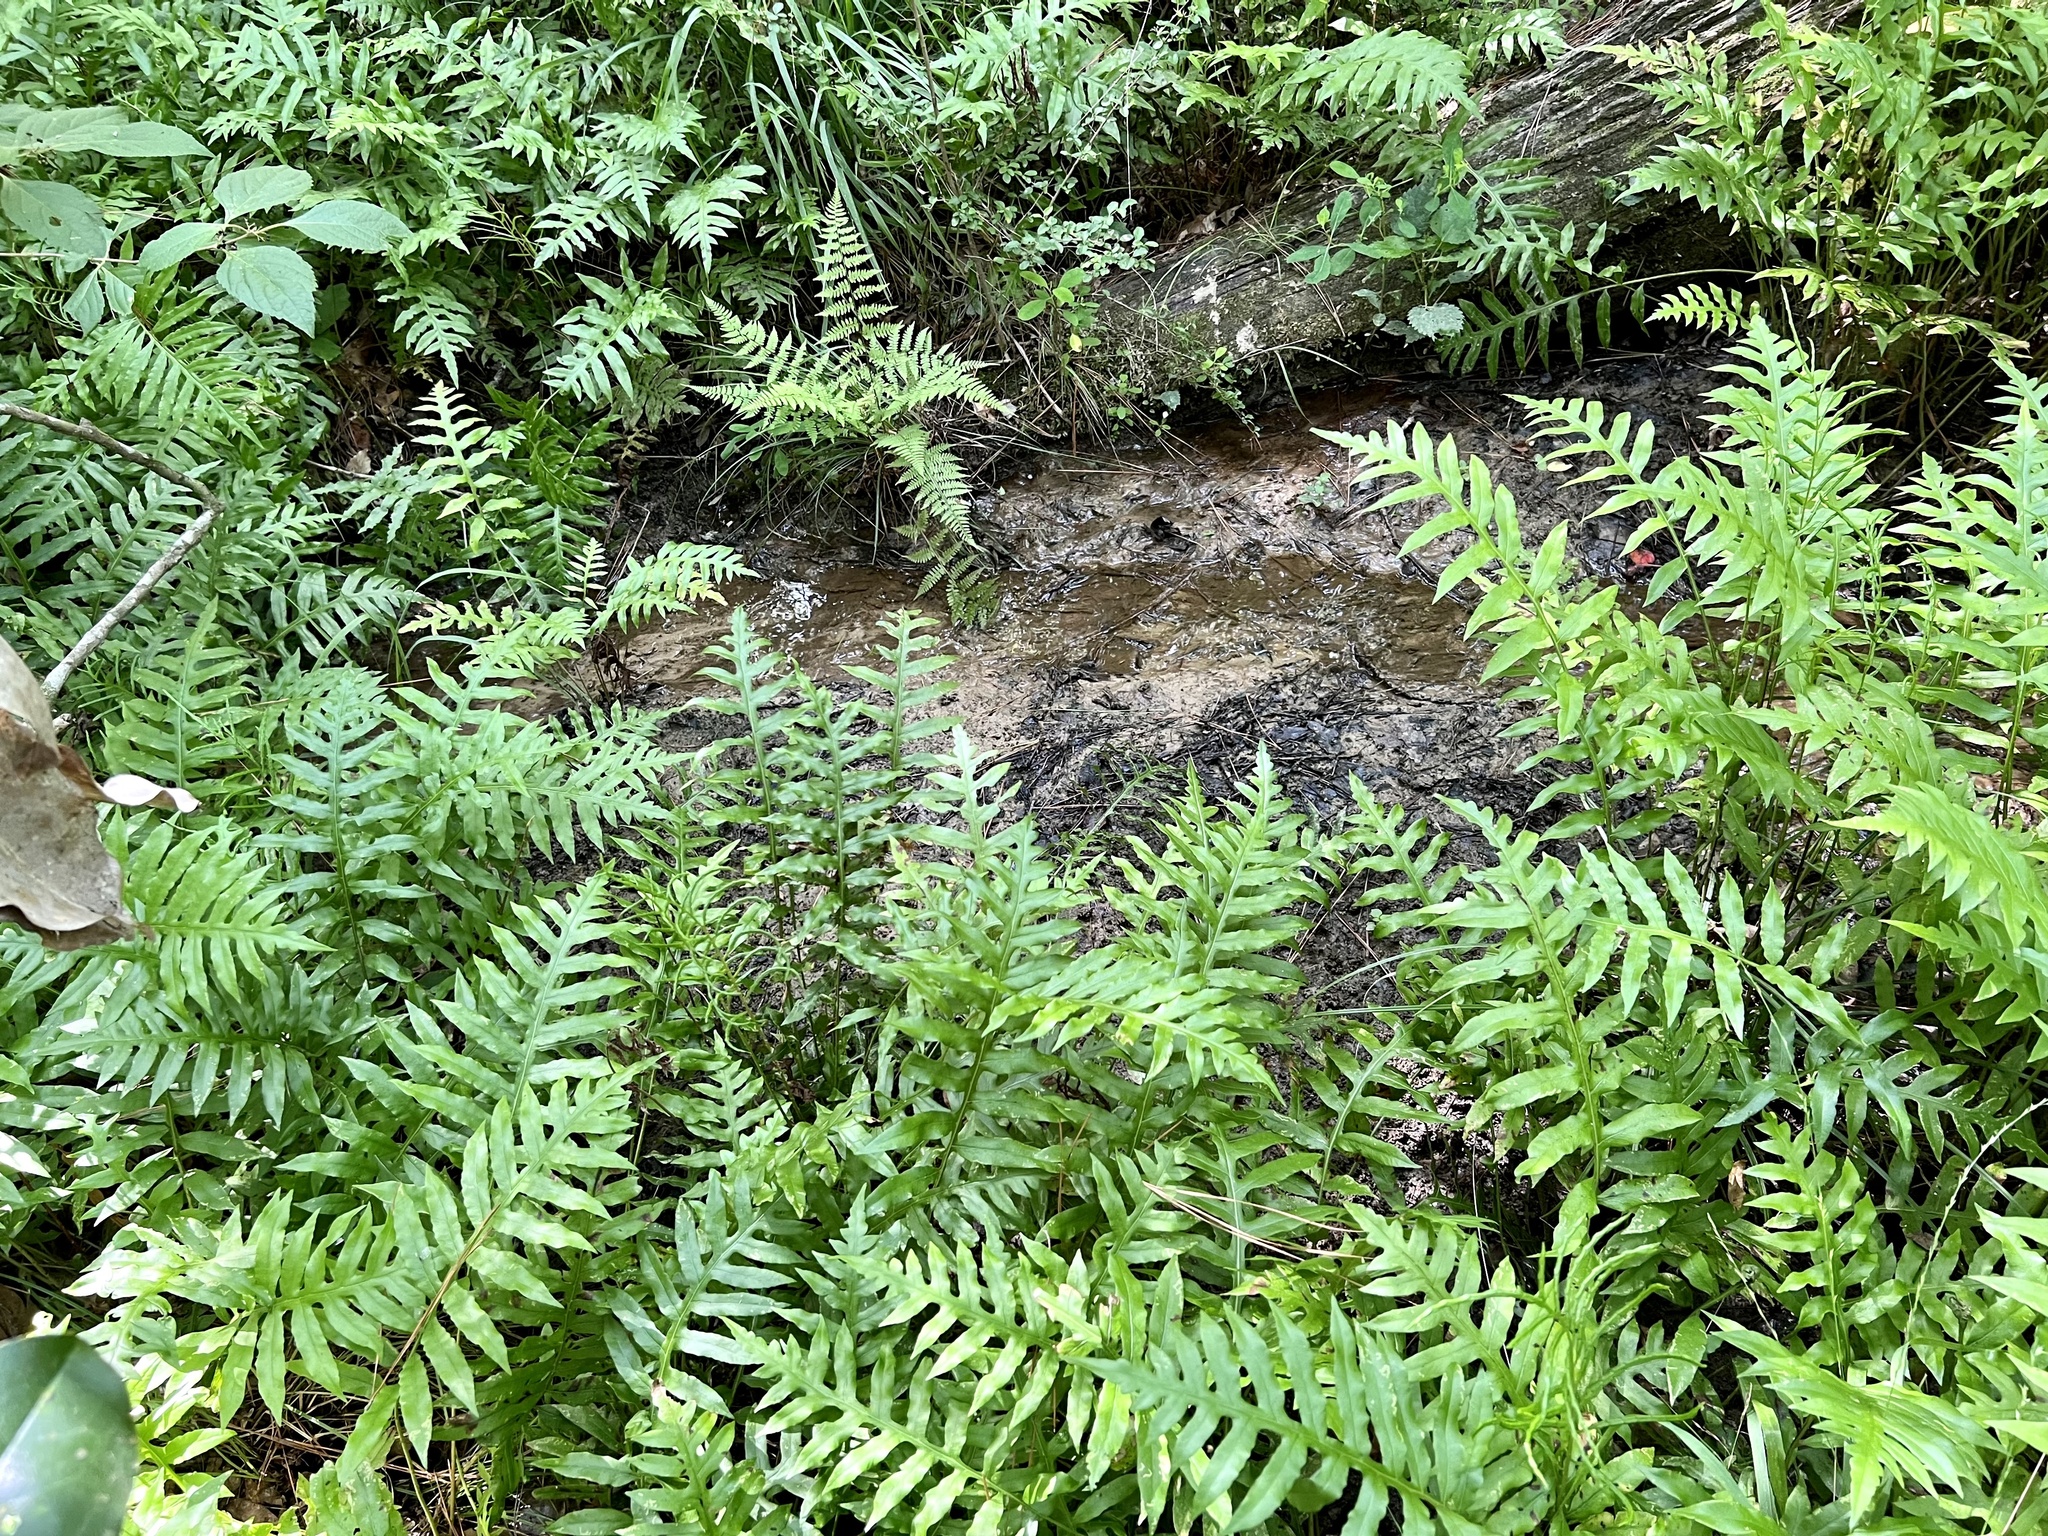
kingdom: Plantae
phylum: Tracheophyta
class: Polypodiopsida
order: Polypodiales
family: Blechnaceae
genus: Lorinseria
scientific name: Lorinseria areolata
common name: Dwarf chain fern
